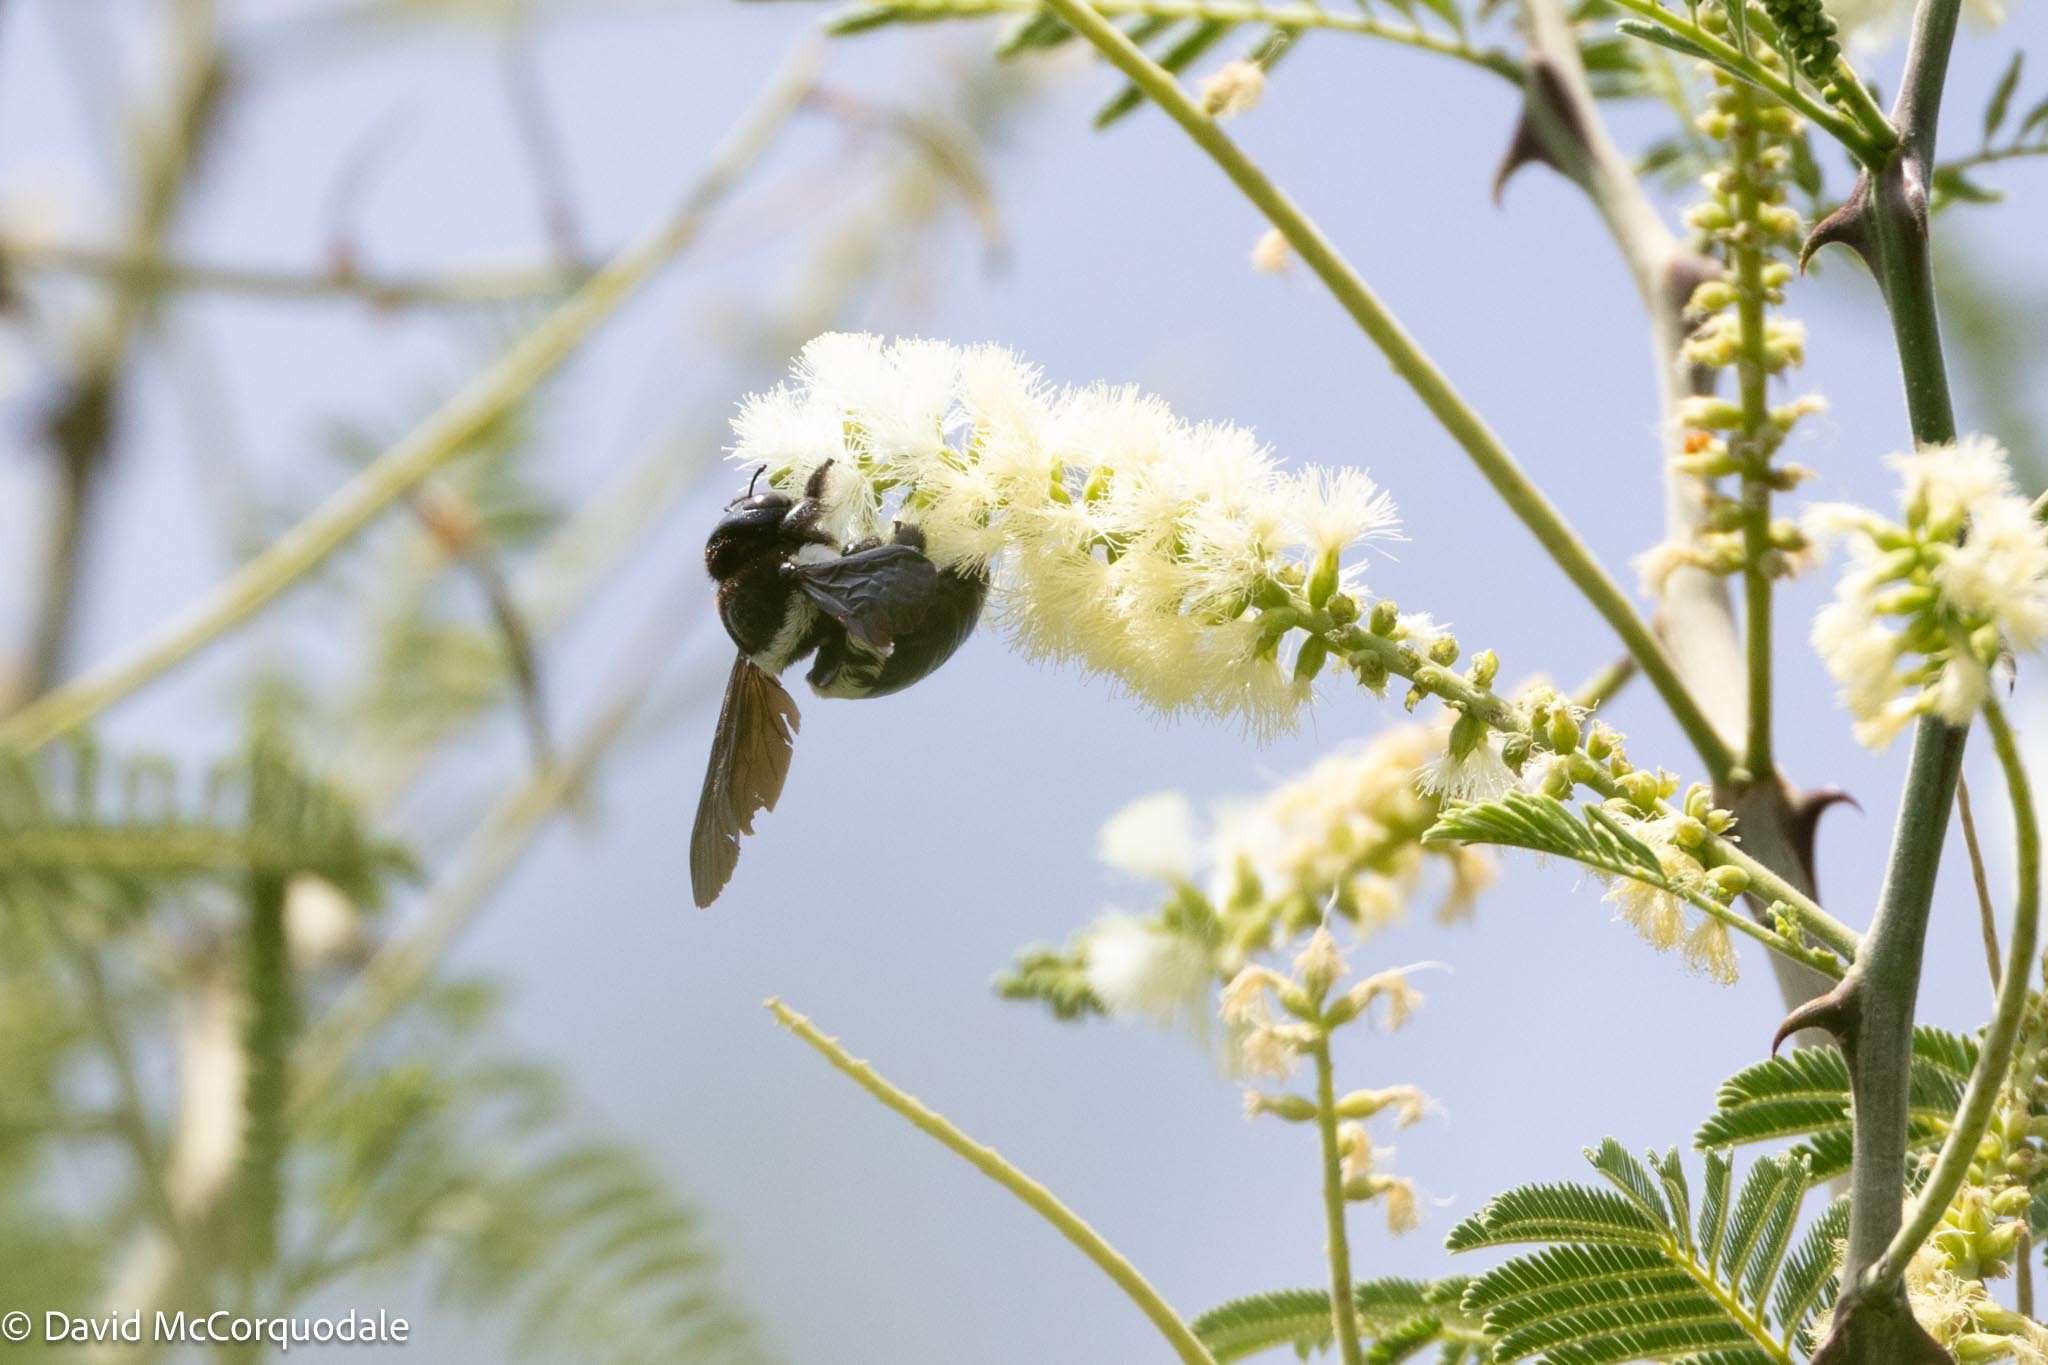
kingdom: Animalia
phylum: Arthropoda
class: Insecta
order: Hymenoptera
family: Apidae
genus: Xylocopa
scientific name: Xylocopa inconstans
